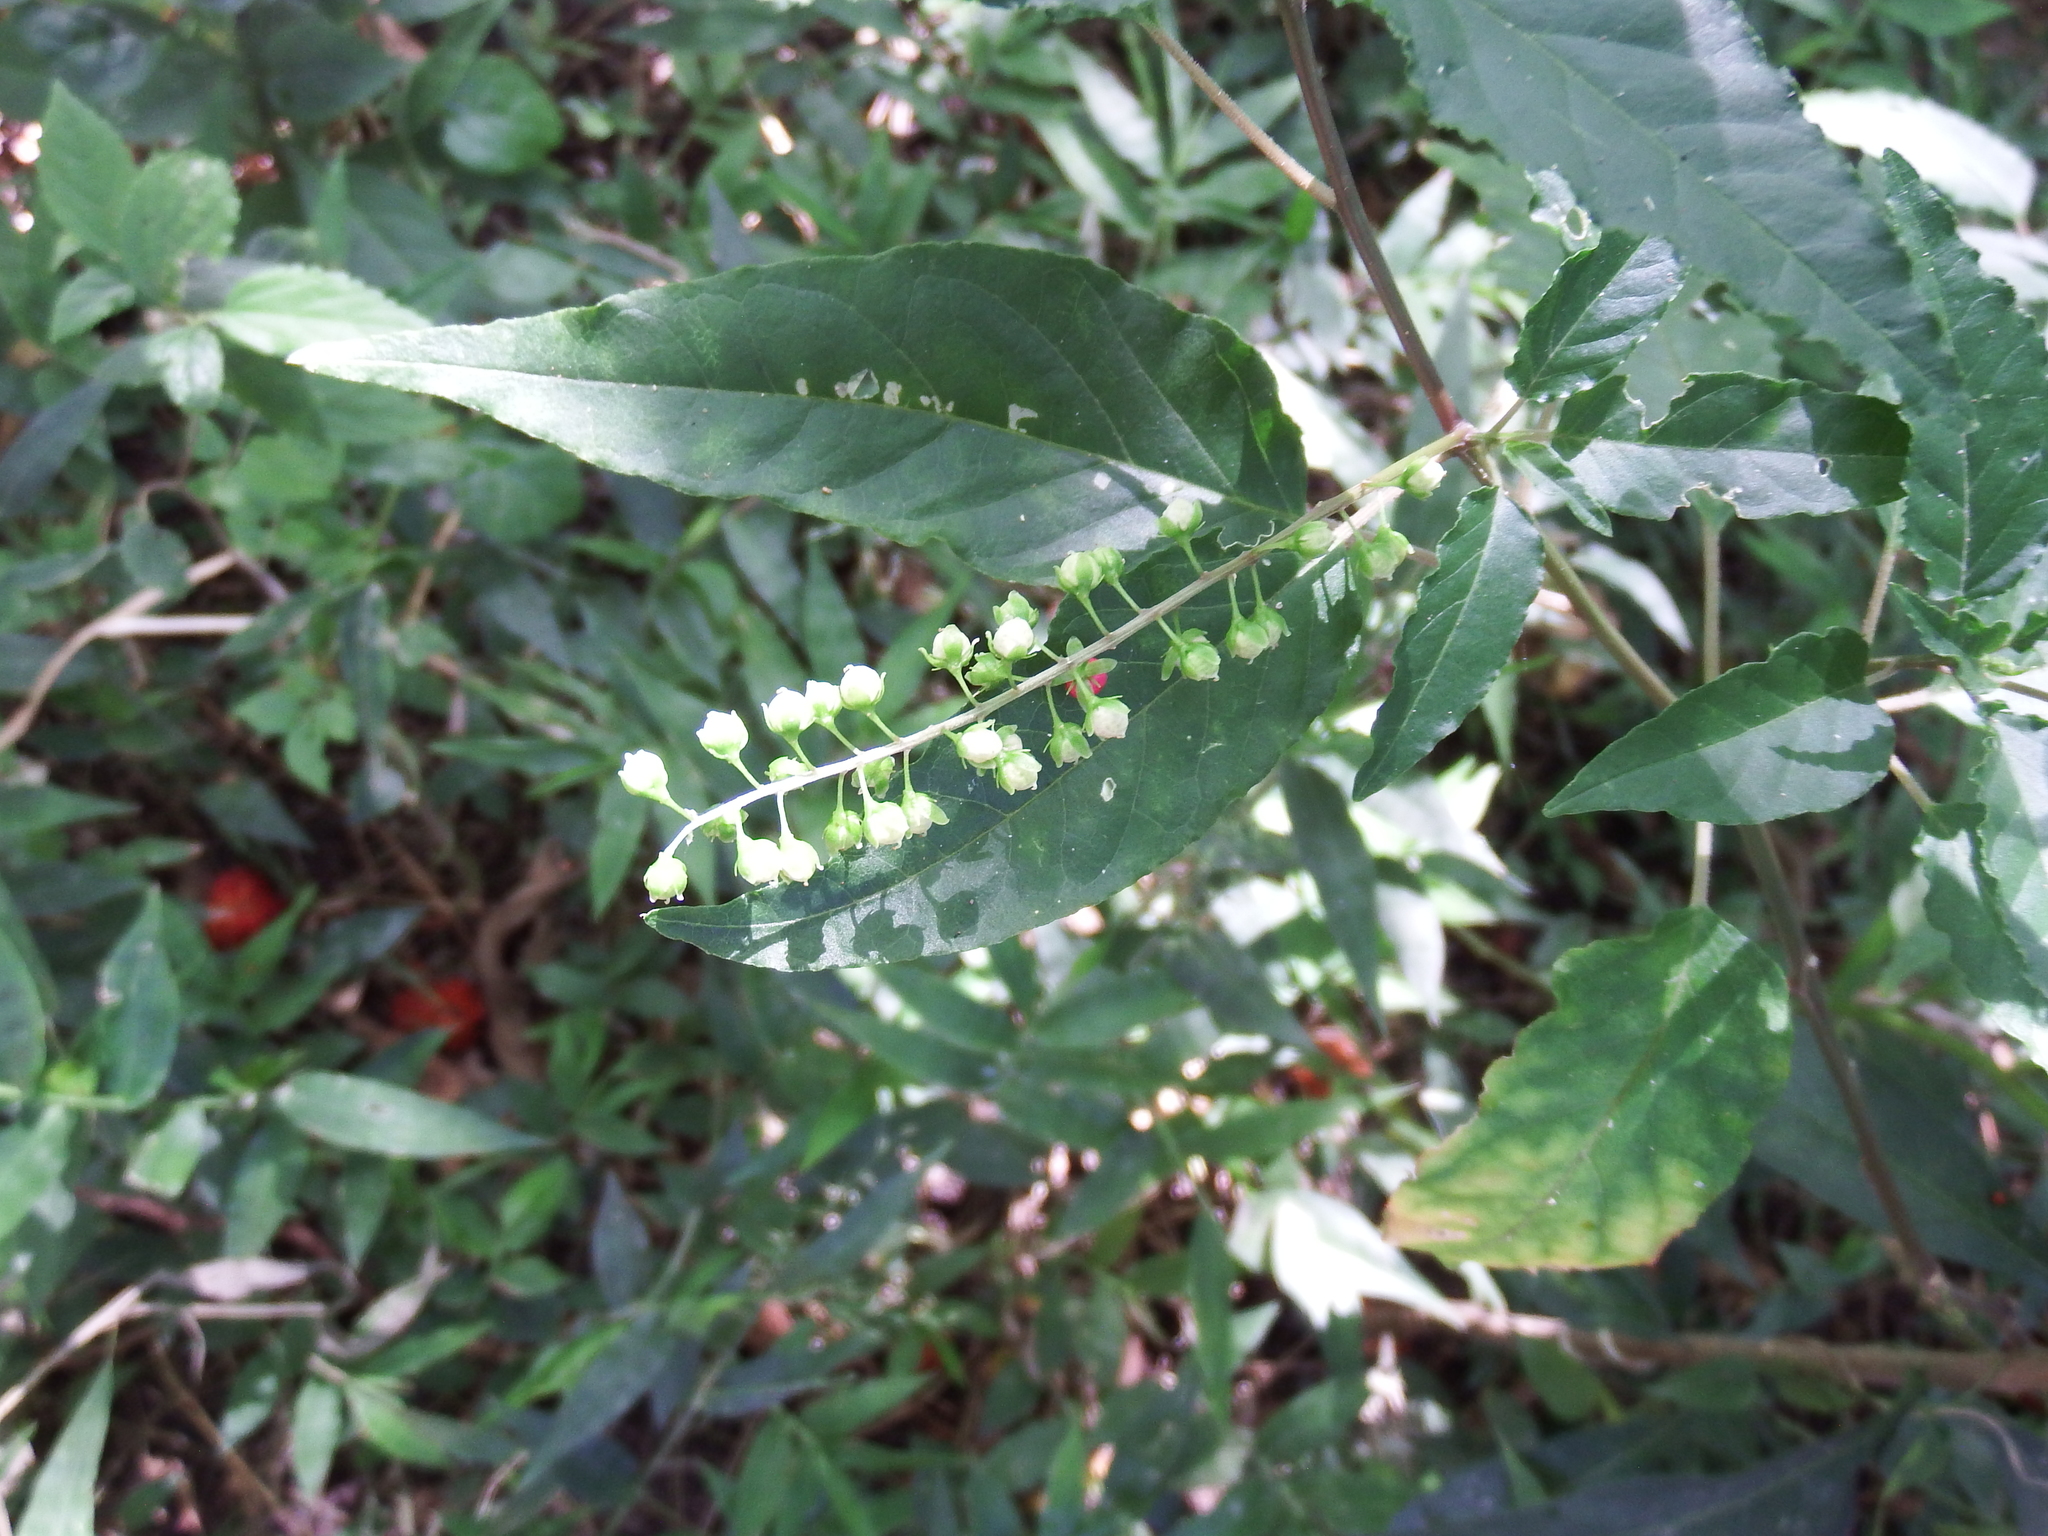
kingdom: Plantae
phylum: Tracheophyta
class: Magnoliopsida
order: Caryophyllales
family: Phytolaccaceae
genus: Rivina
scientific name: Rivina humilis
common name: Rougeplant
